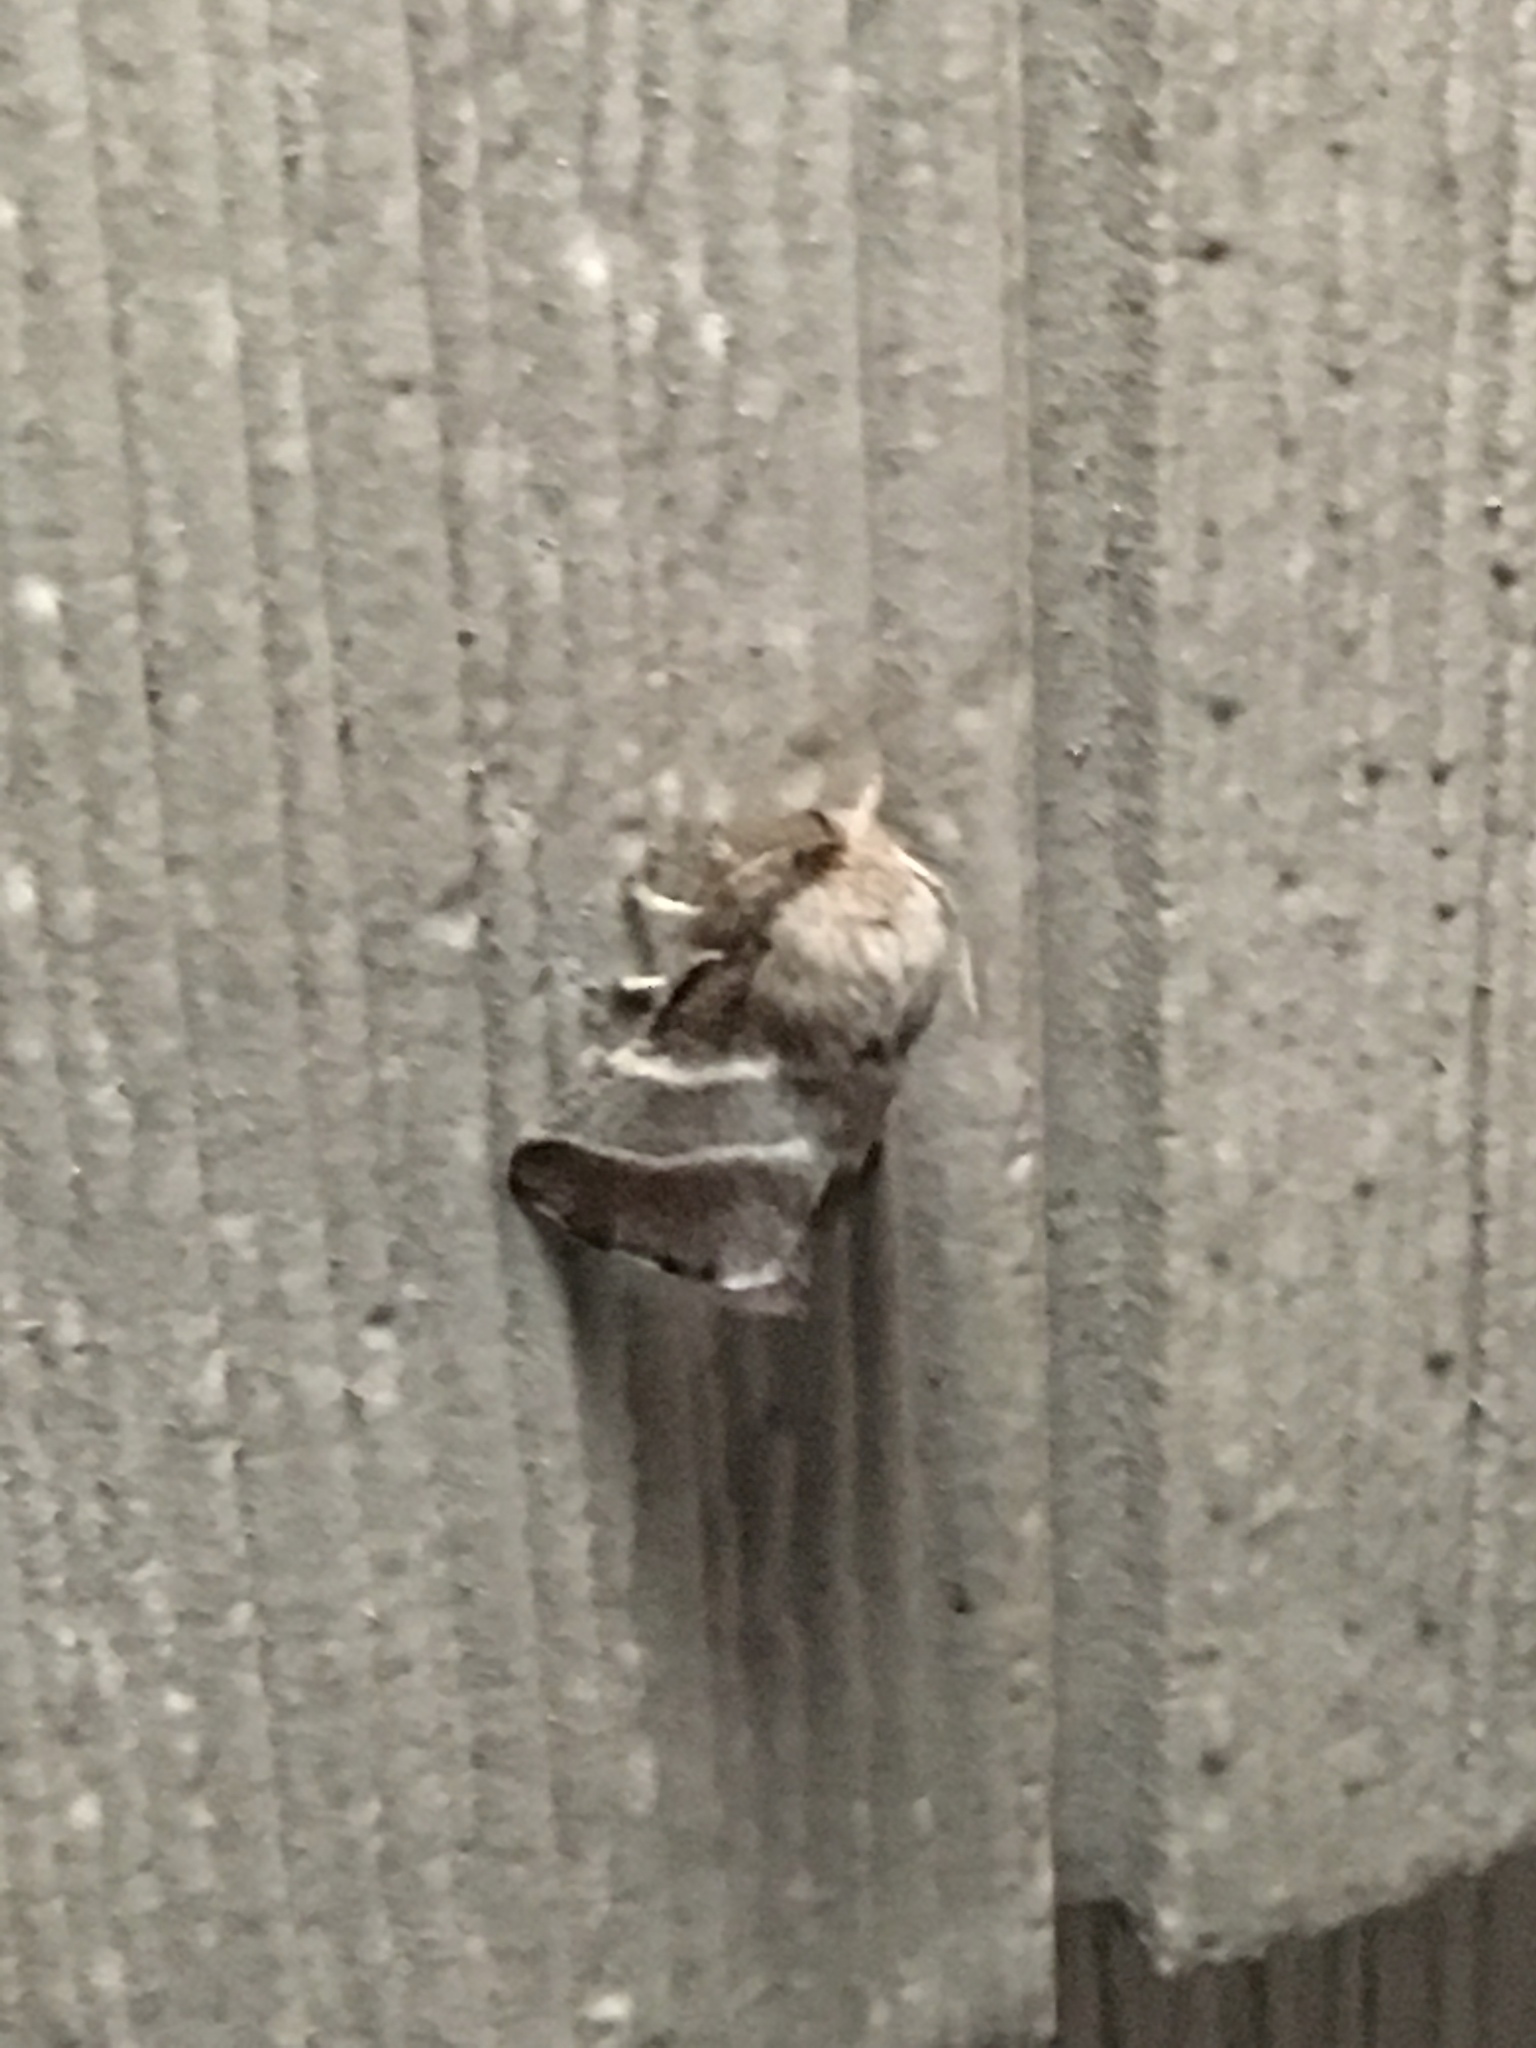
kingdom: Animalia
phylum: Arthropoda
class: Insecta
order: Lepidoptera
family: Lasiocampidae
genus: Malacosoma
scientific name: Malacosoma americana
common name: Eastern tent caterpillar moth
